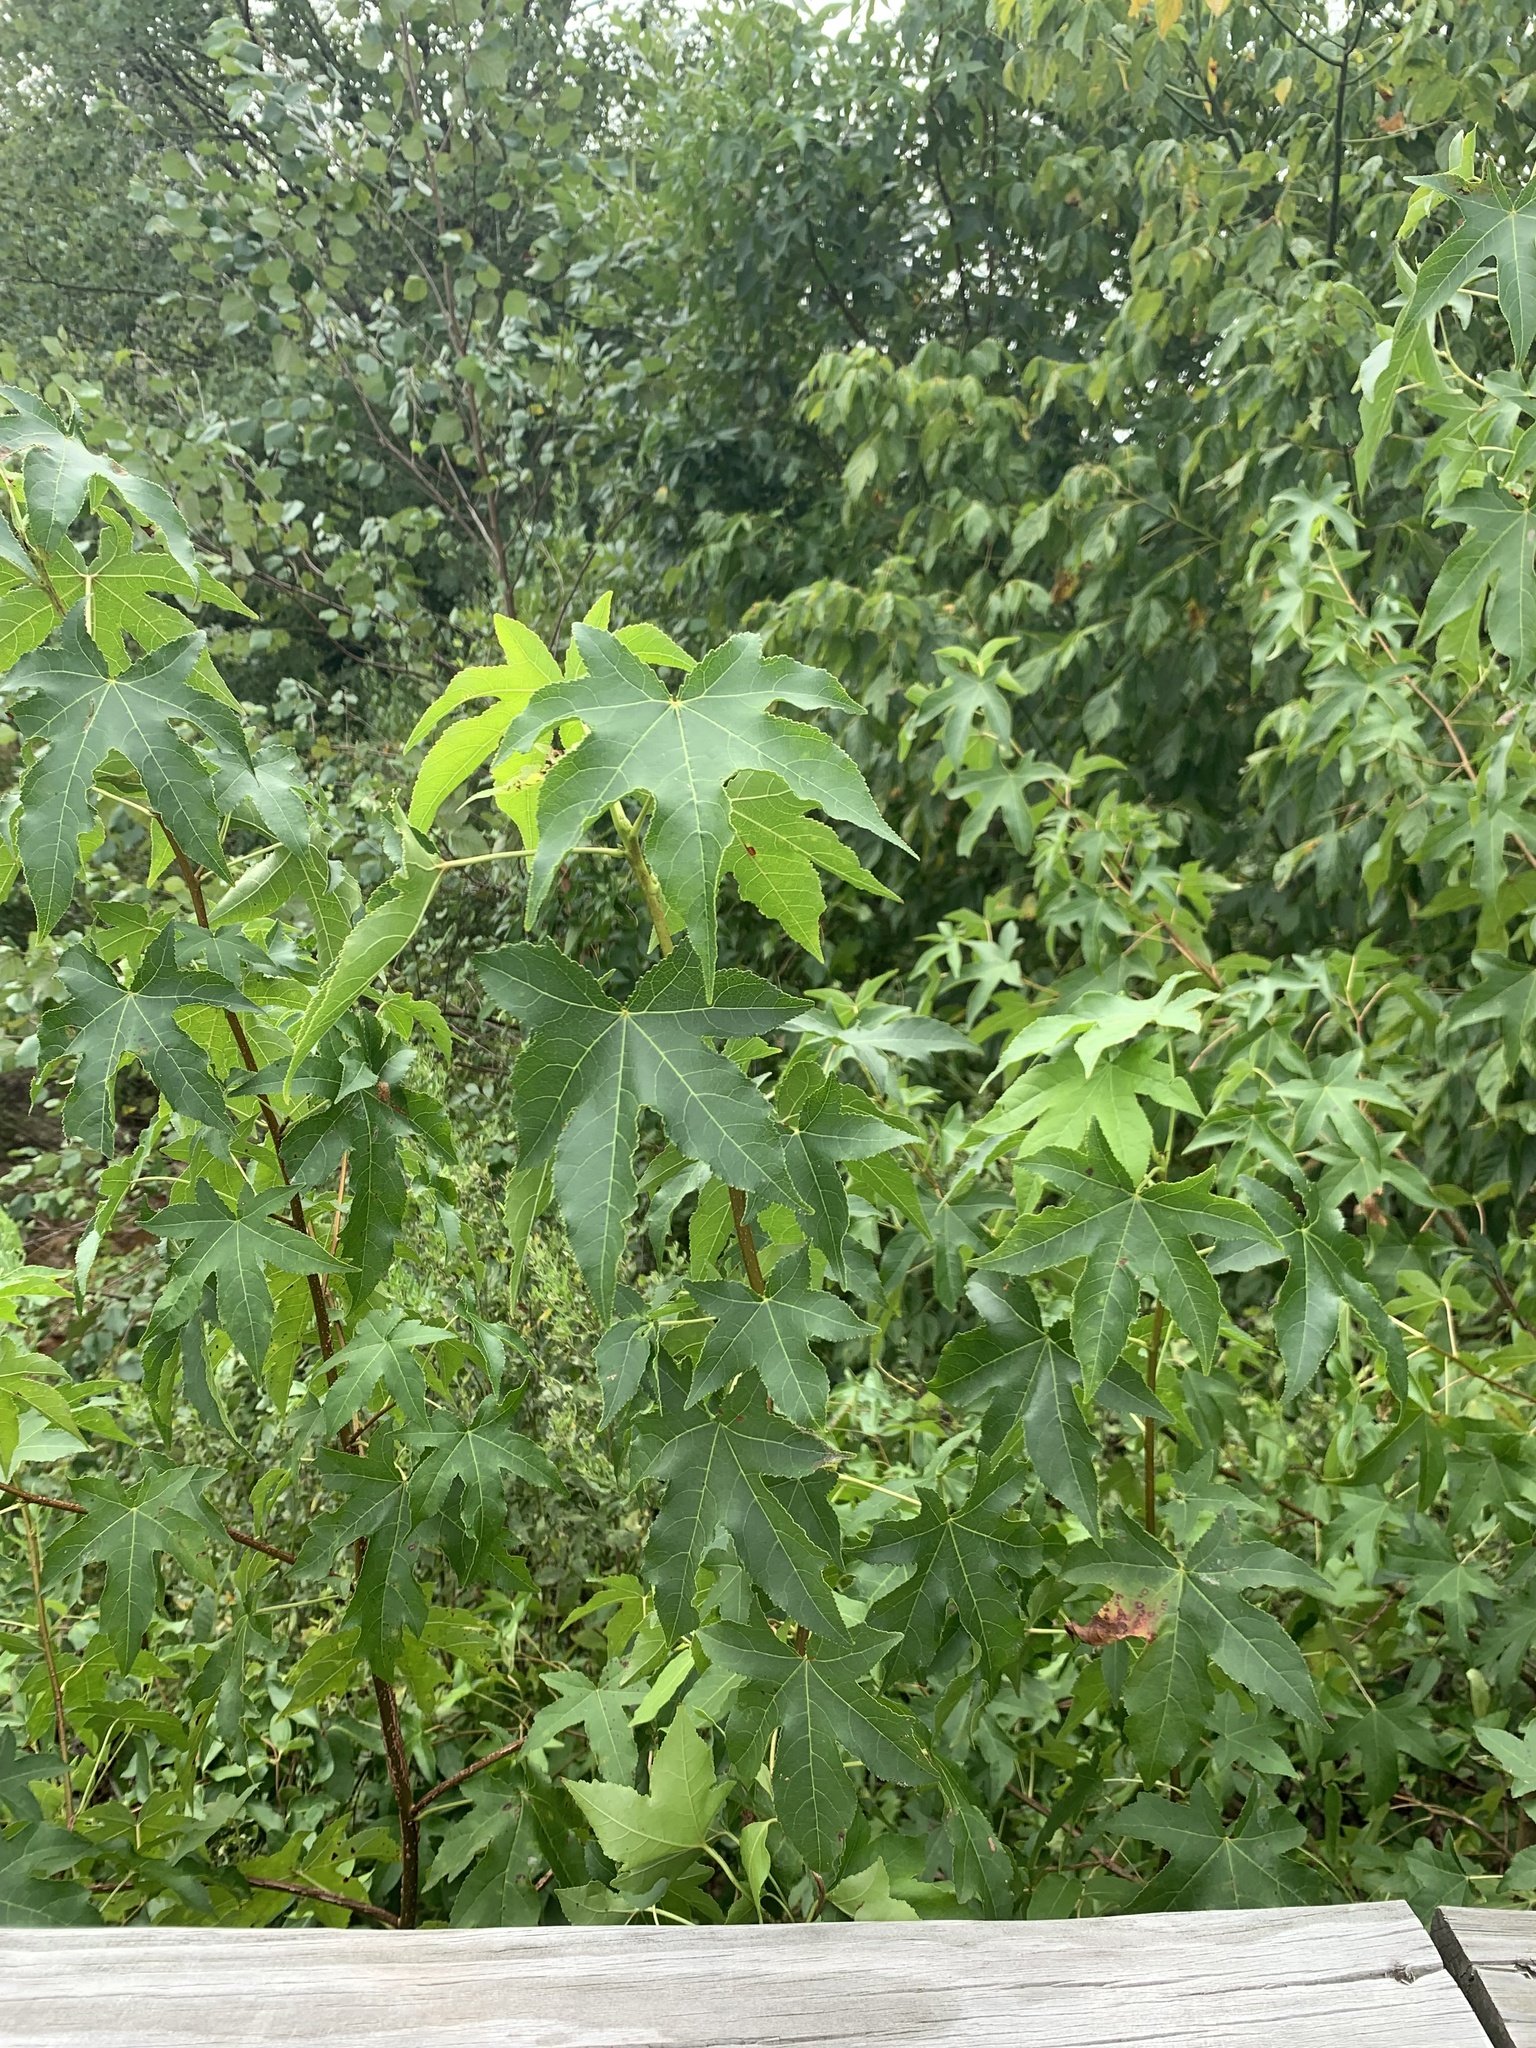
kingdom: Plantae
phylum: Tracheophyta
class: Magnoliopsida
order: Saxifragales
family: Altingiaceae
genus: Liquidambar
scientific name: Liquidambar styraciflua
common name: Sweet gum
